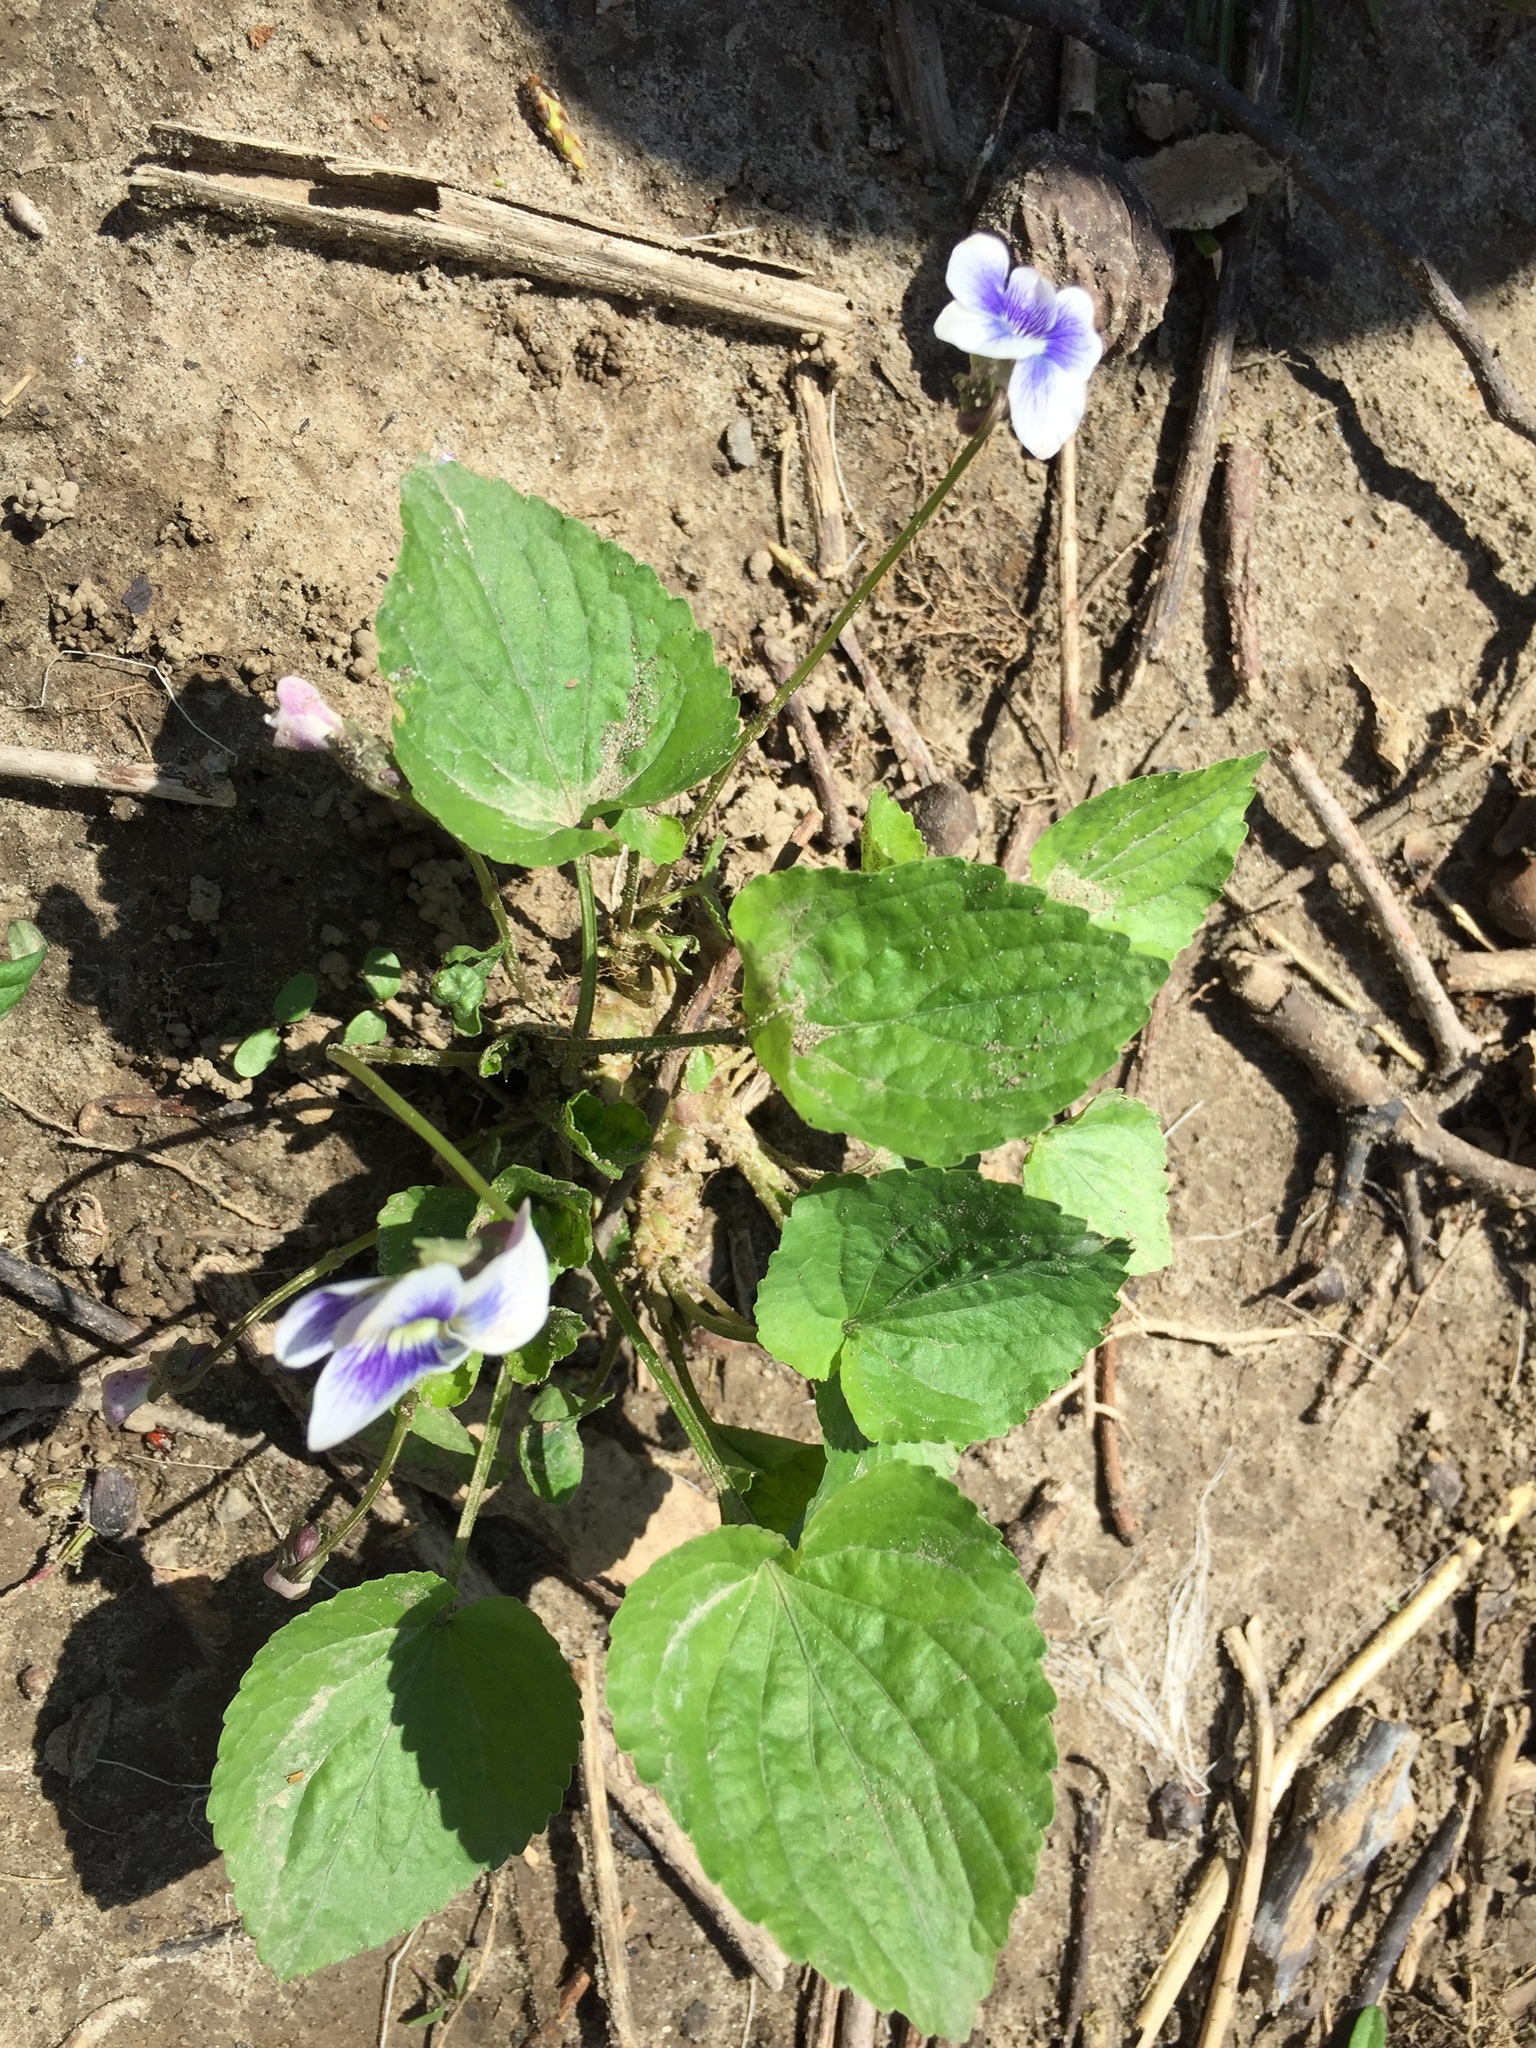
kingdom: Plantae
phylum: Tracheophyta
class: Magnoliopsida
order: Malpighiales
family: Violaceae
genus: Viola
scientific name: Viola sororia
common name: Dooryard violet
